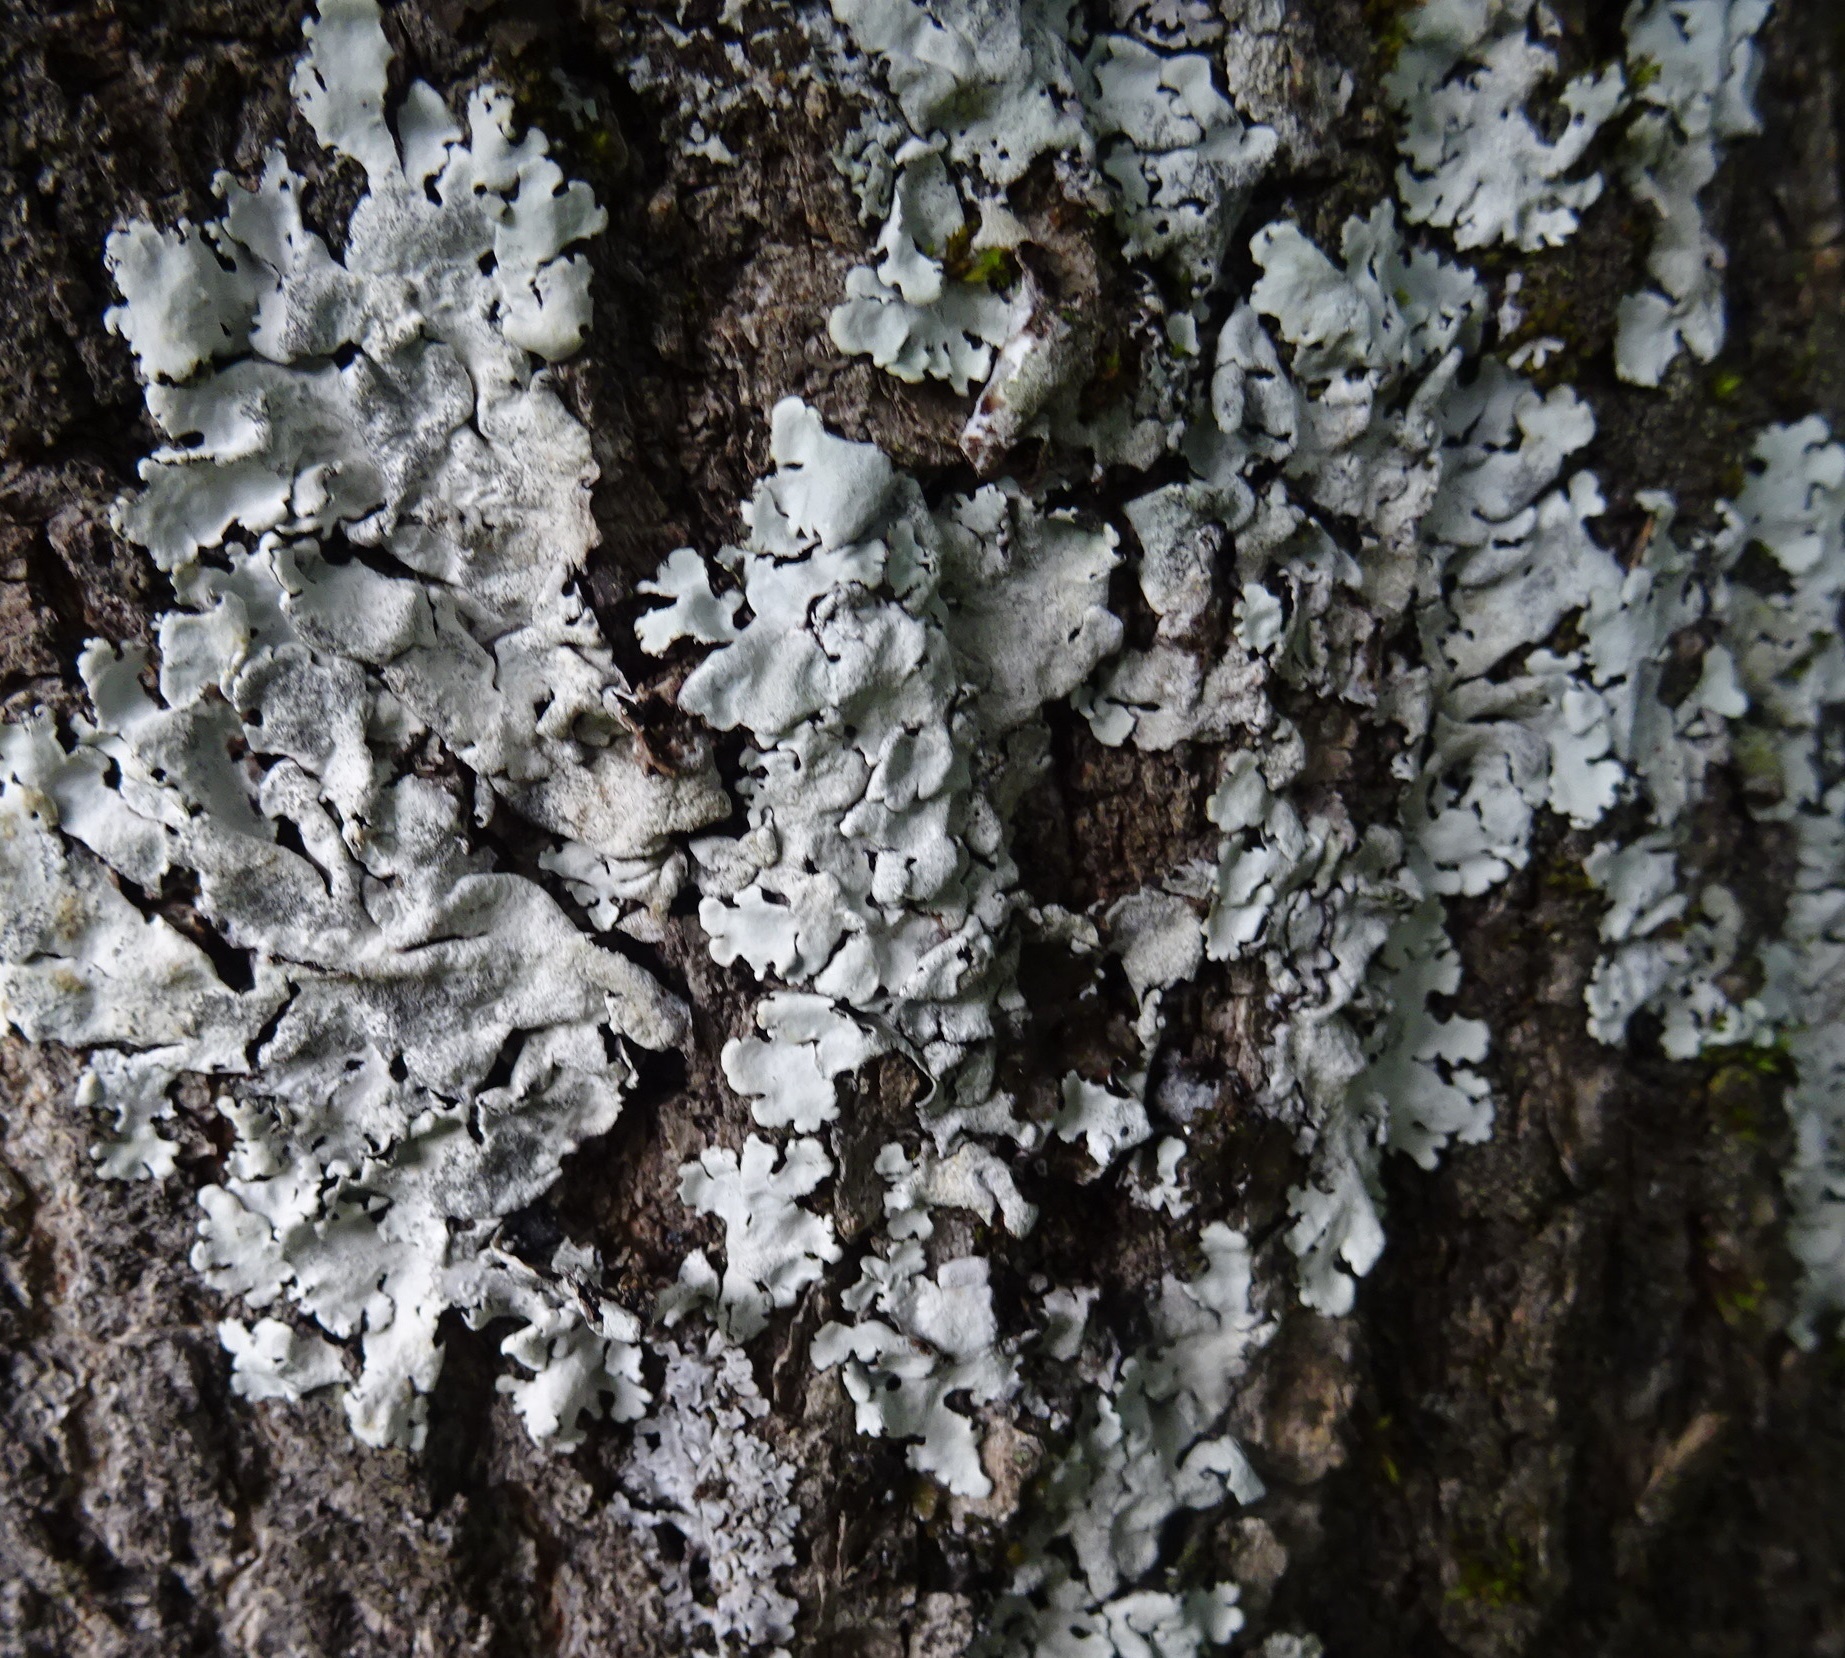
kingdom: Fungi
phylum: Ascomycota
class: Lecanoromycetes
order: Lecanorales
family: Parmeliaceae
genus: Parmelina
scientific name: Parmelina tiliacea
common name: Linden shield lichen
